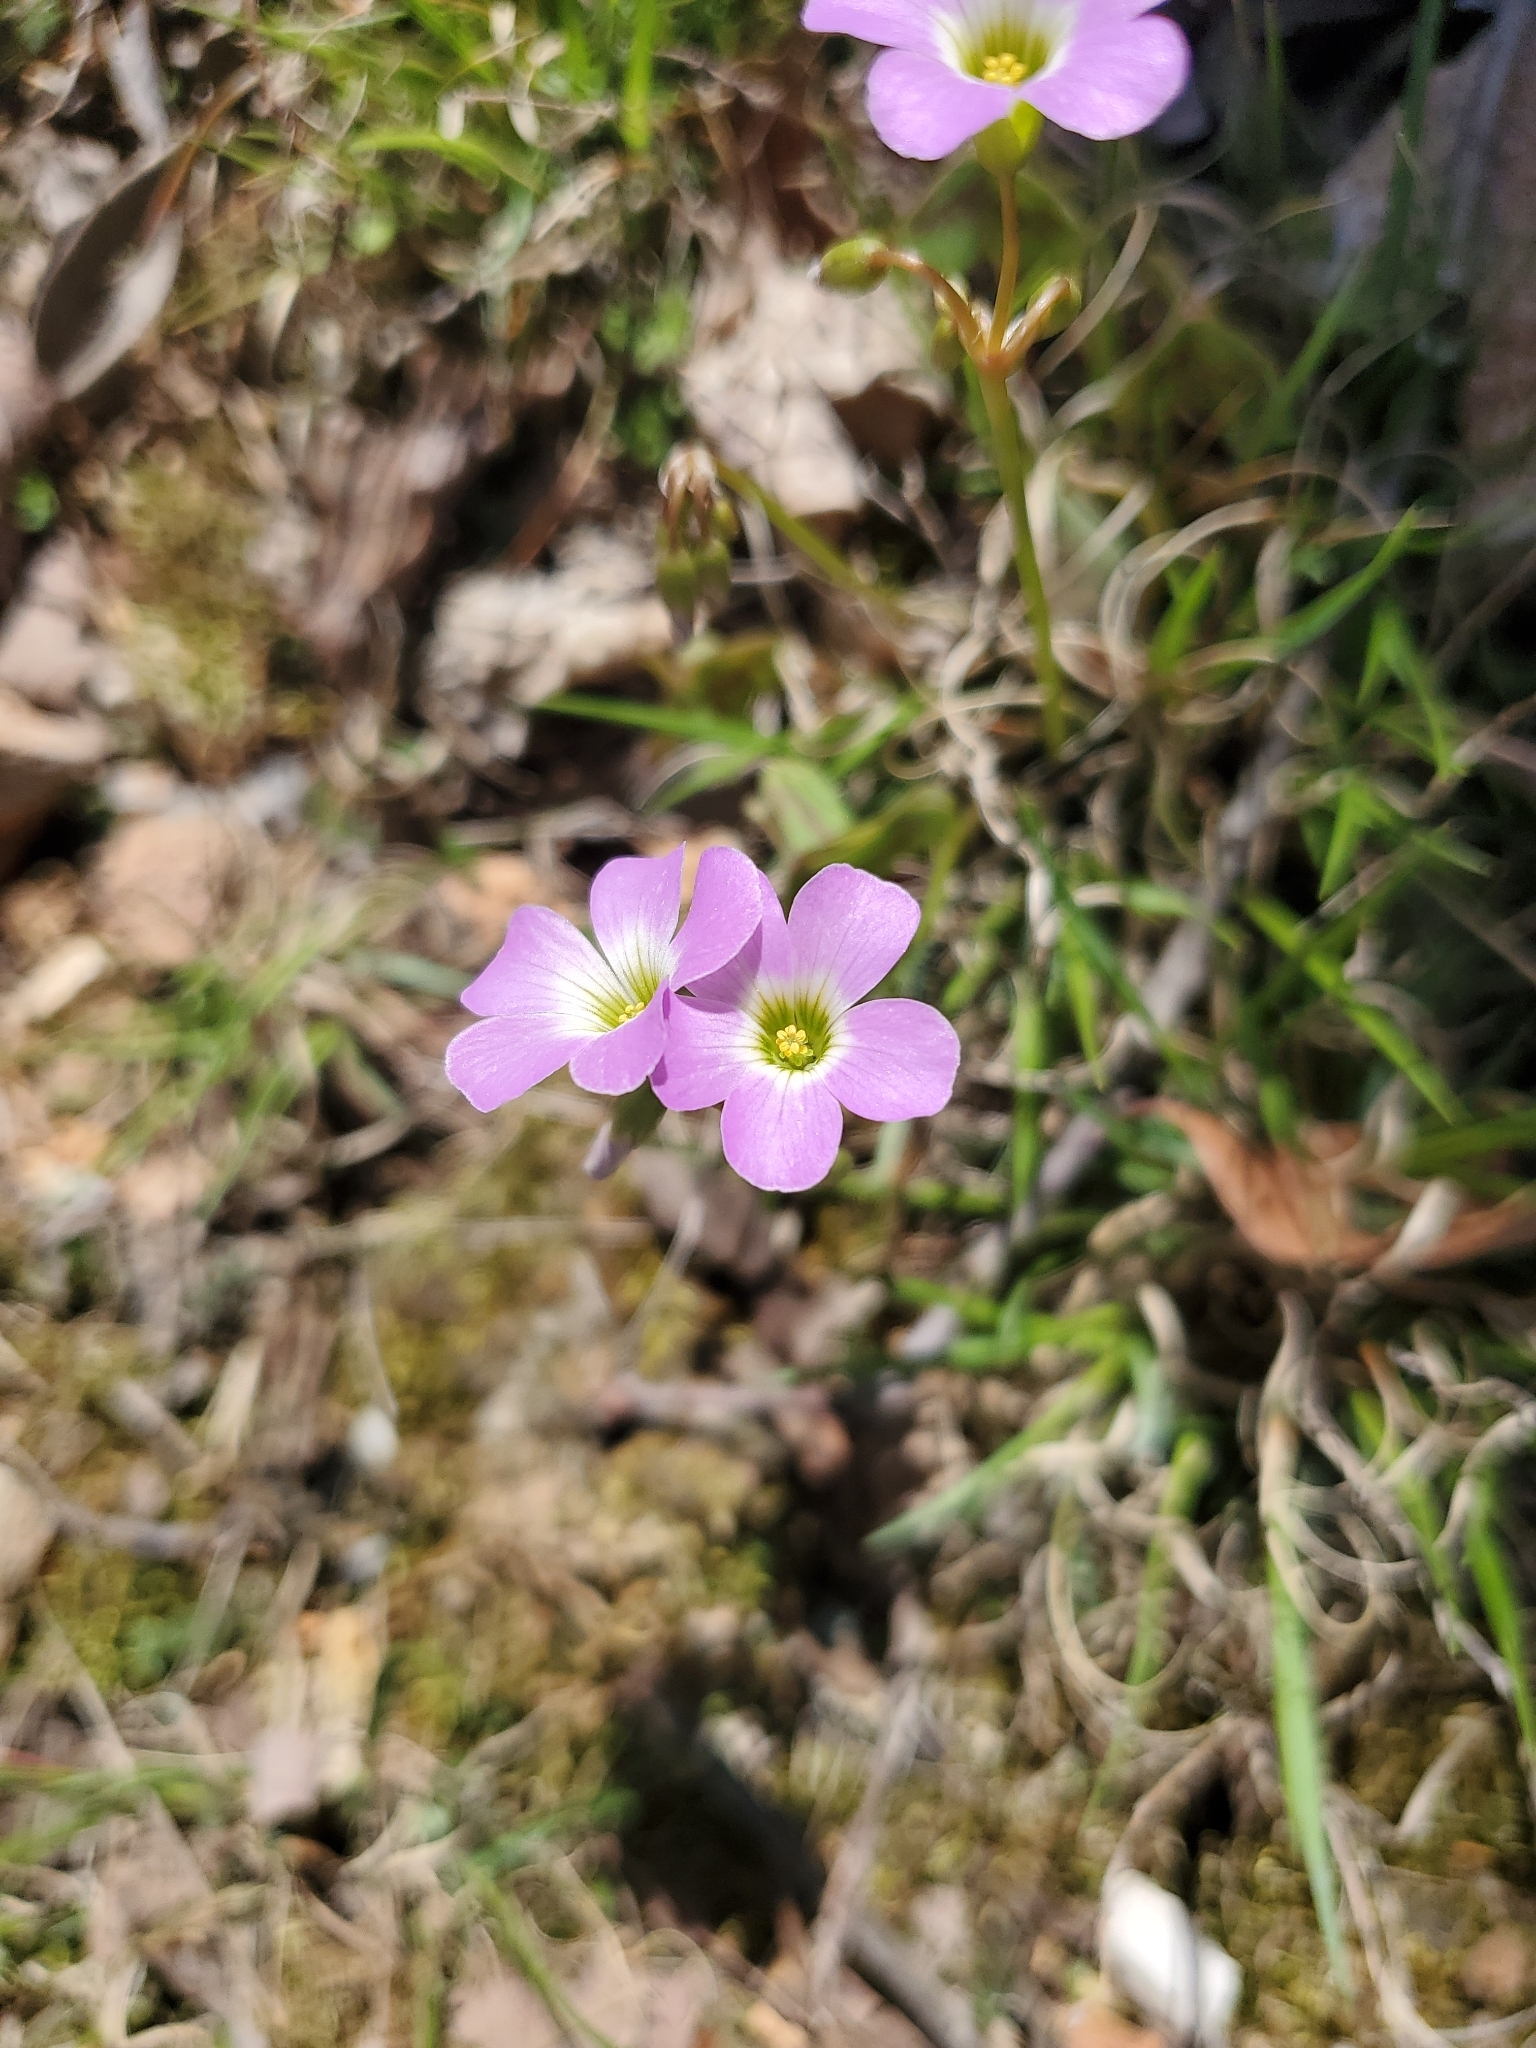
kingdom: Plantae
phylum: Tracheophyta
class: Magnoliopsida
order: Oxalidales
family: Oxalidaceae
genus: Oxalis
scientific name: Oxalis violacea
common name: Violet wood-sorrel
